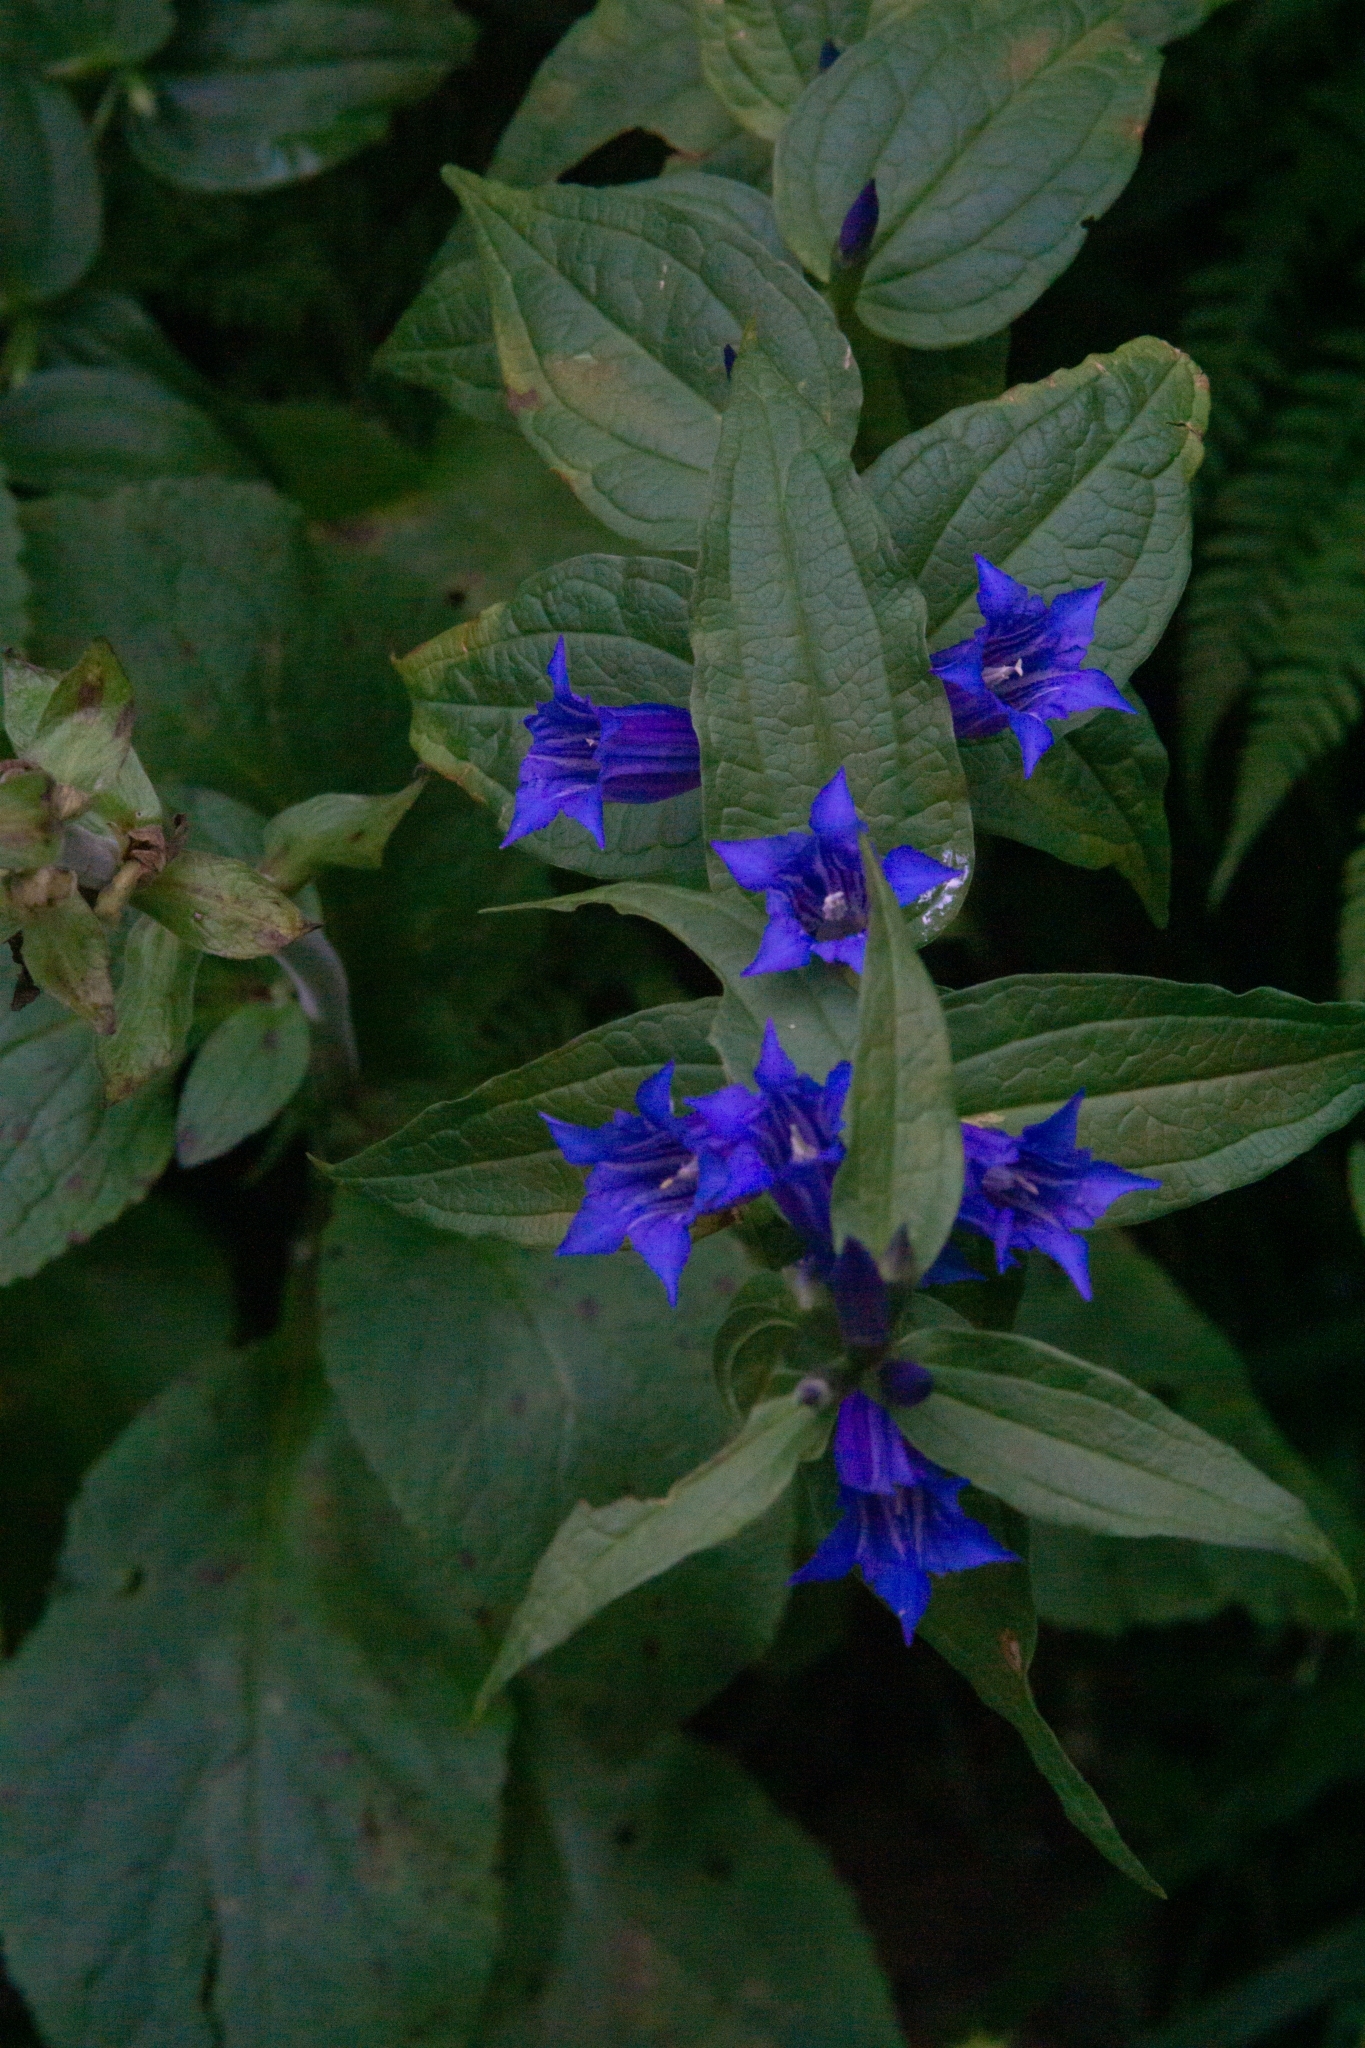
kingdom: Plantae
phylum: Tracheophyta
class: Magnoliopsida
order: Gentianales
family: Gentianaceae
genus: Gentiana
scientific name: Gentiana asclepiadea
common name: Willow gentian
